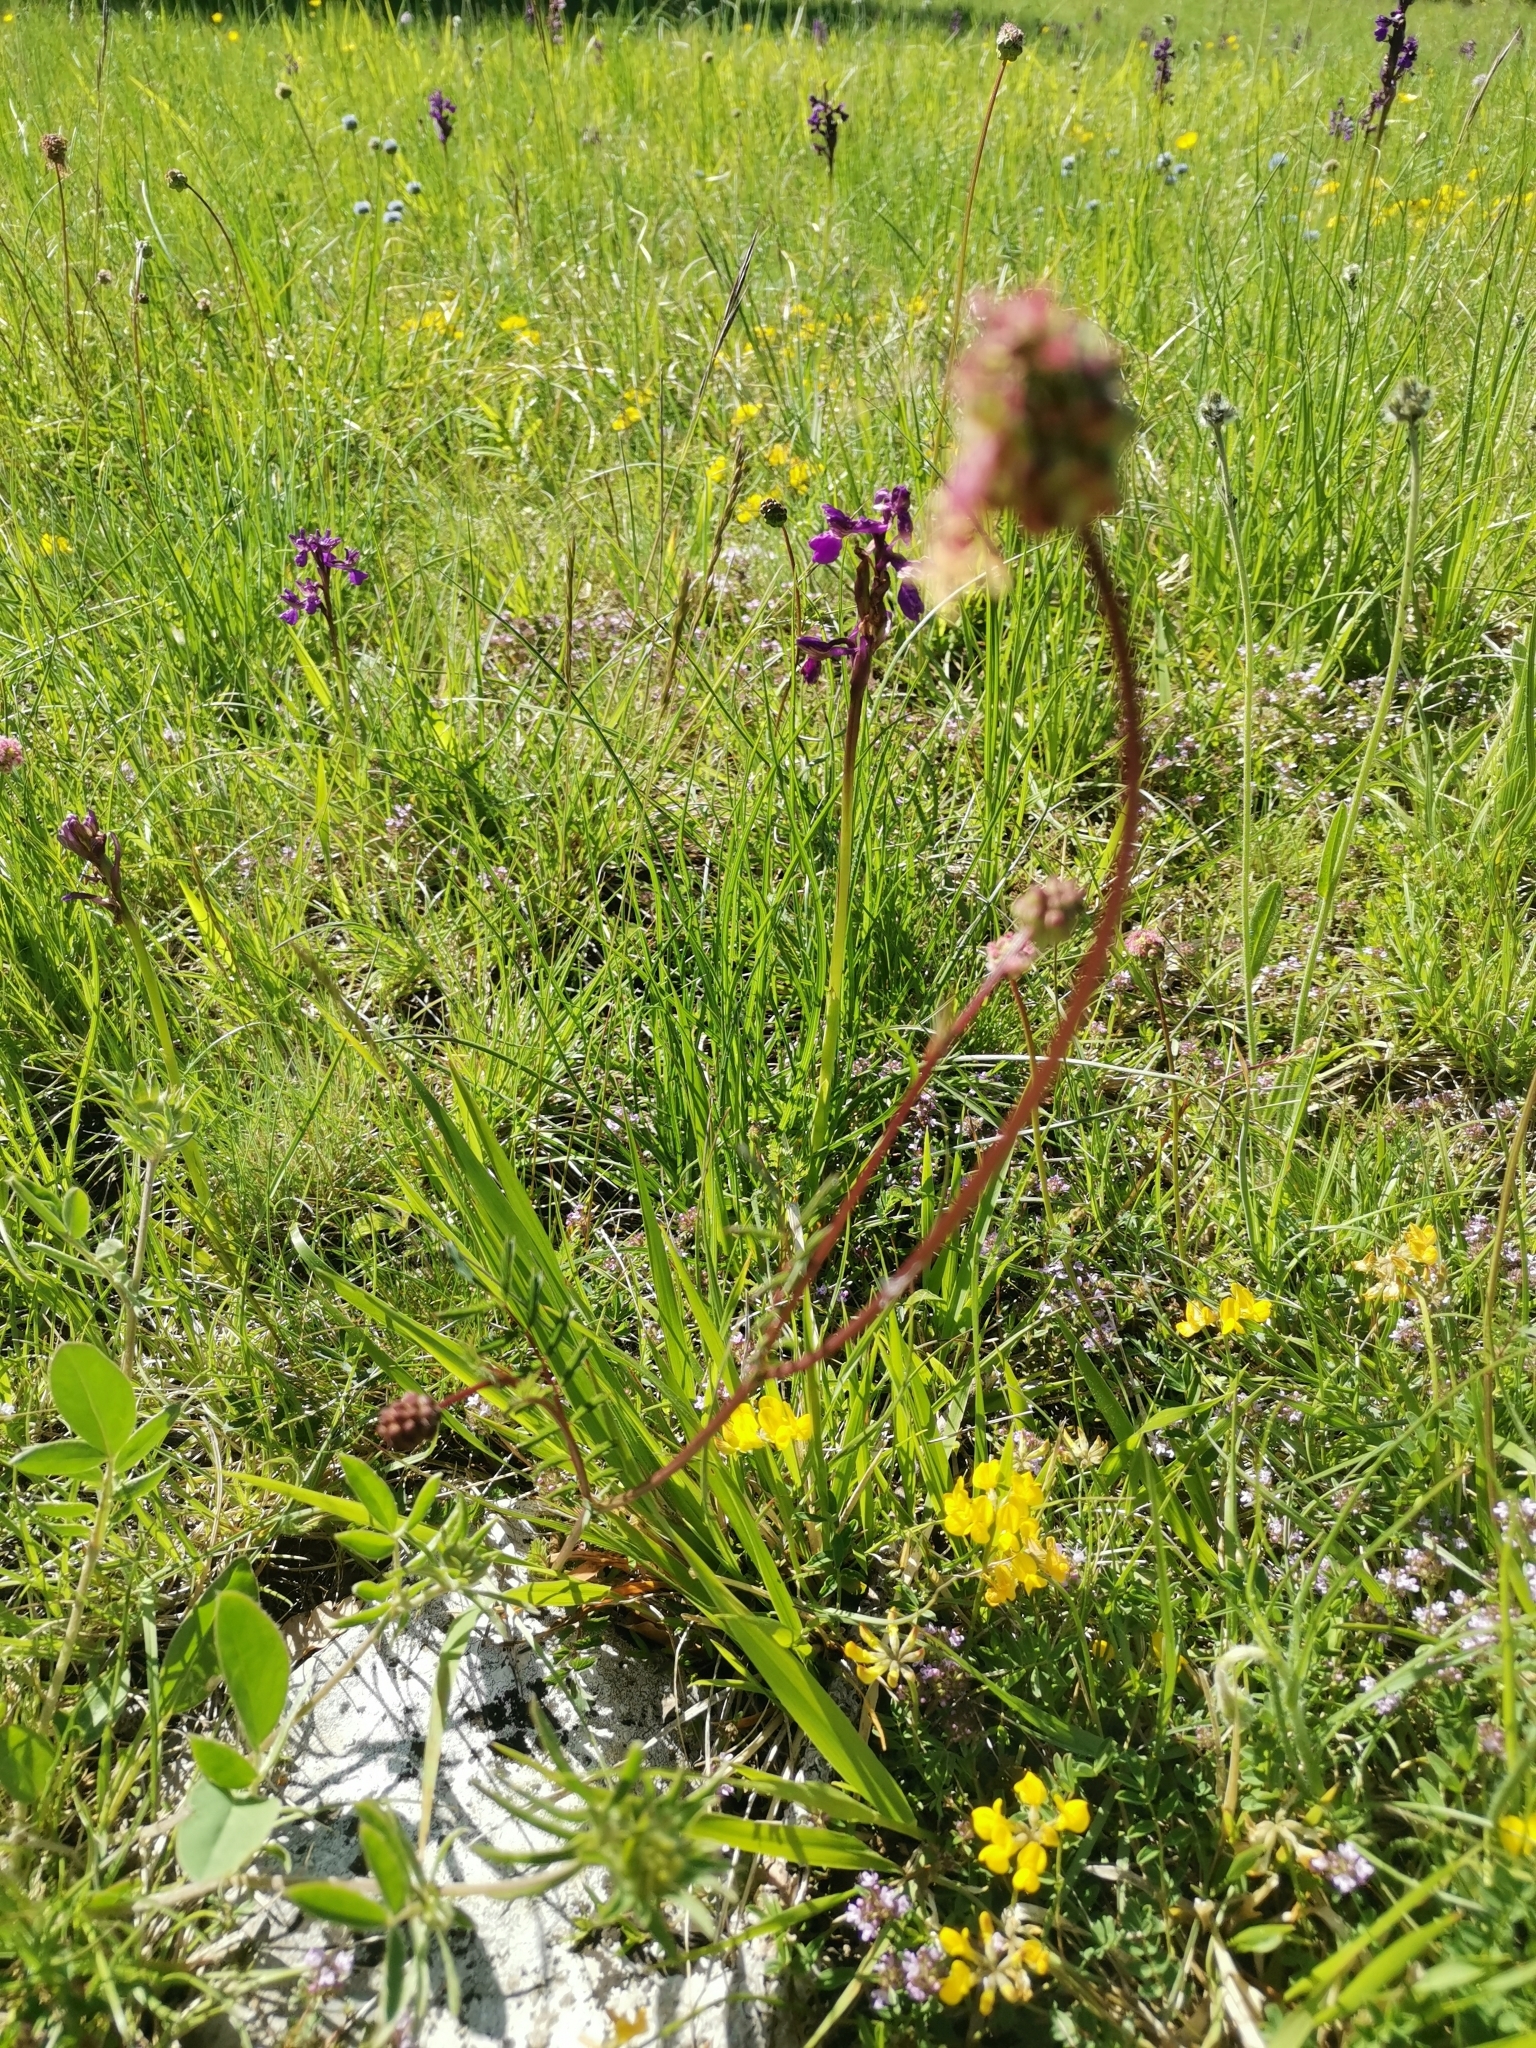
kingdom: Plantae
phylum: Tracheophyta
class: Magnoliopsida
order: Rosales
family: Rosaceae
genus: Poterium
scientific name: Poterium sanguisorba
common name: Salad burnet
